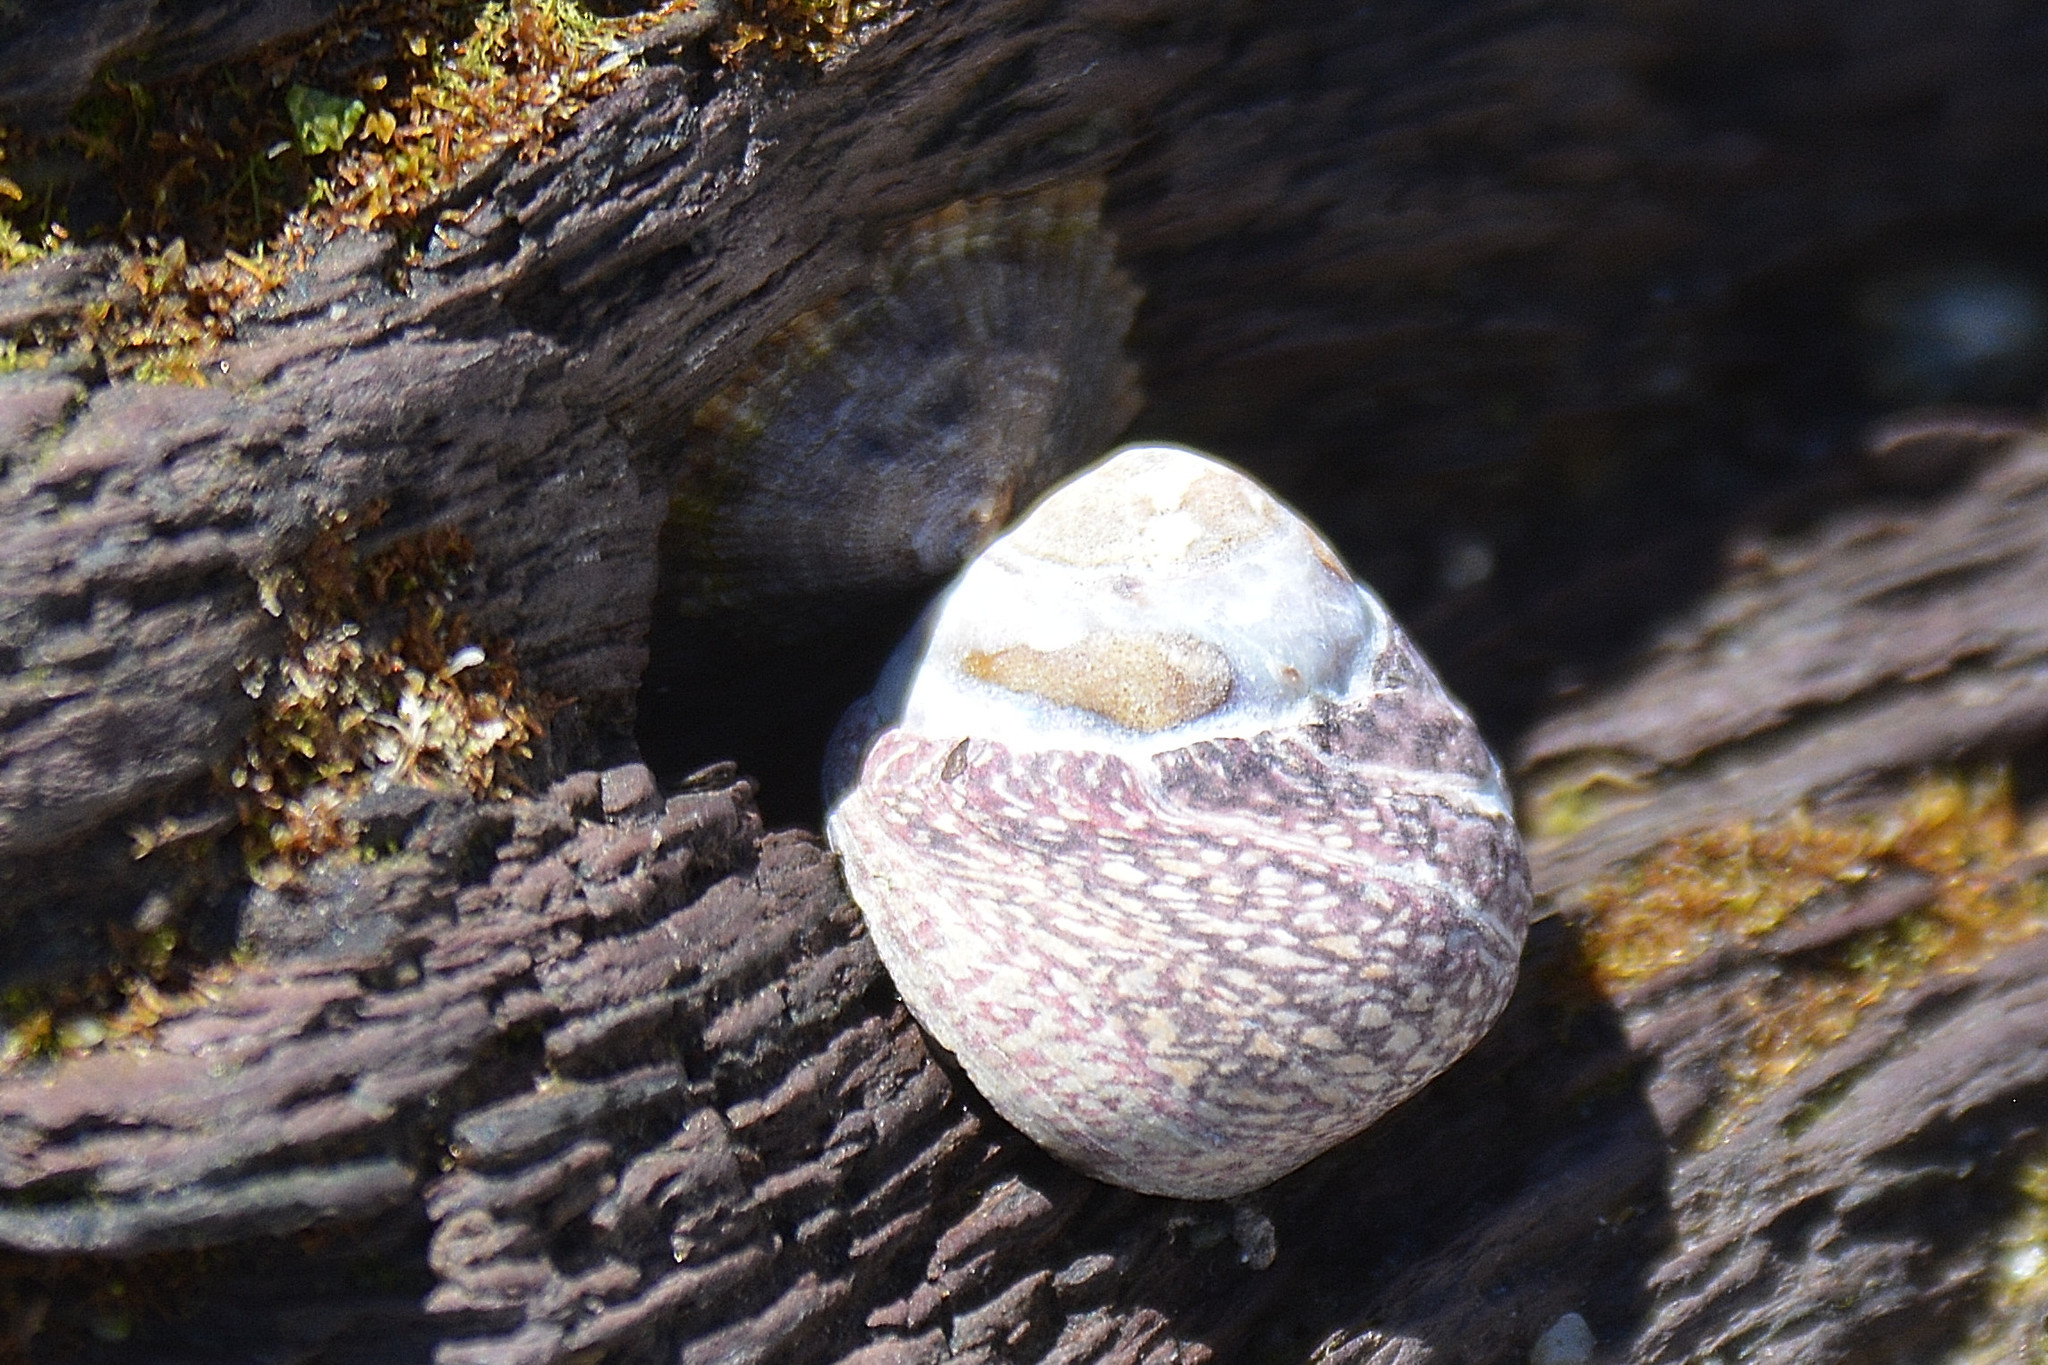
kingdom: Animalia
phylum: Mollusca
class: Gastropoda
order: Trochida
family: Trochidae
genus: Phorcus
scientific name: Phorcus lineatus
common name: Toothed top shell
